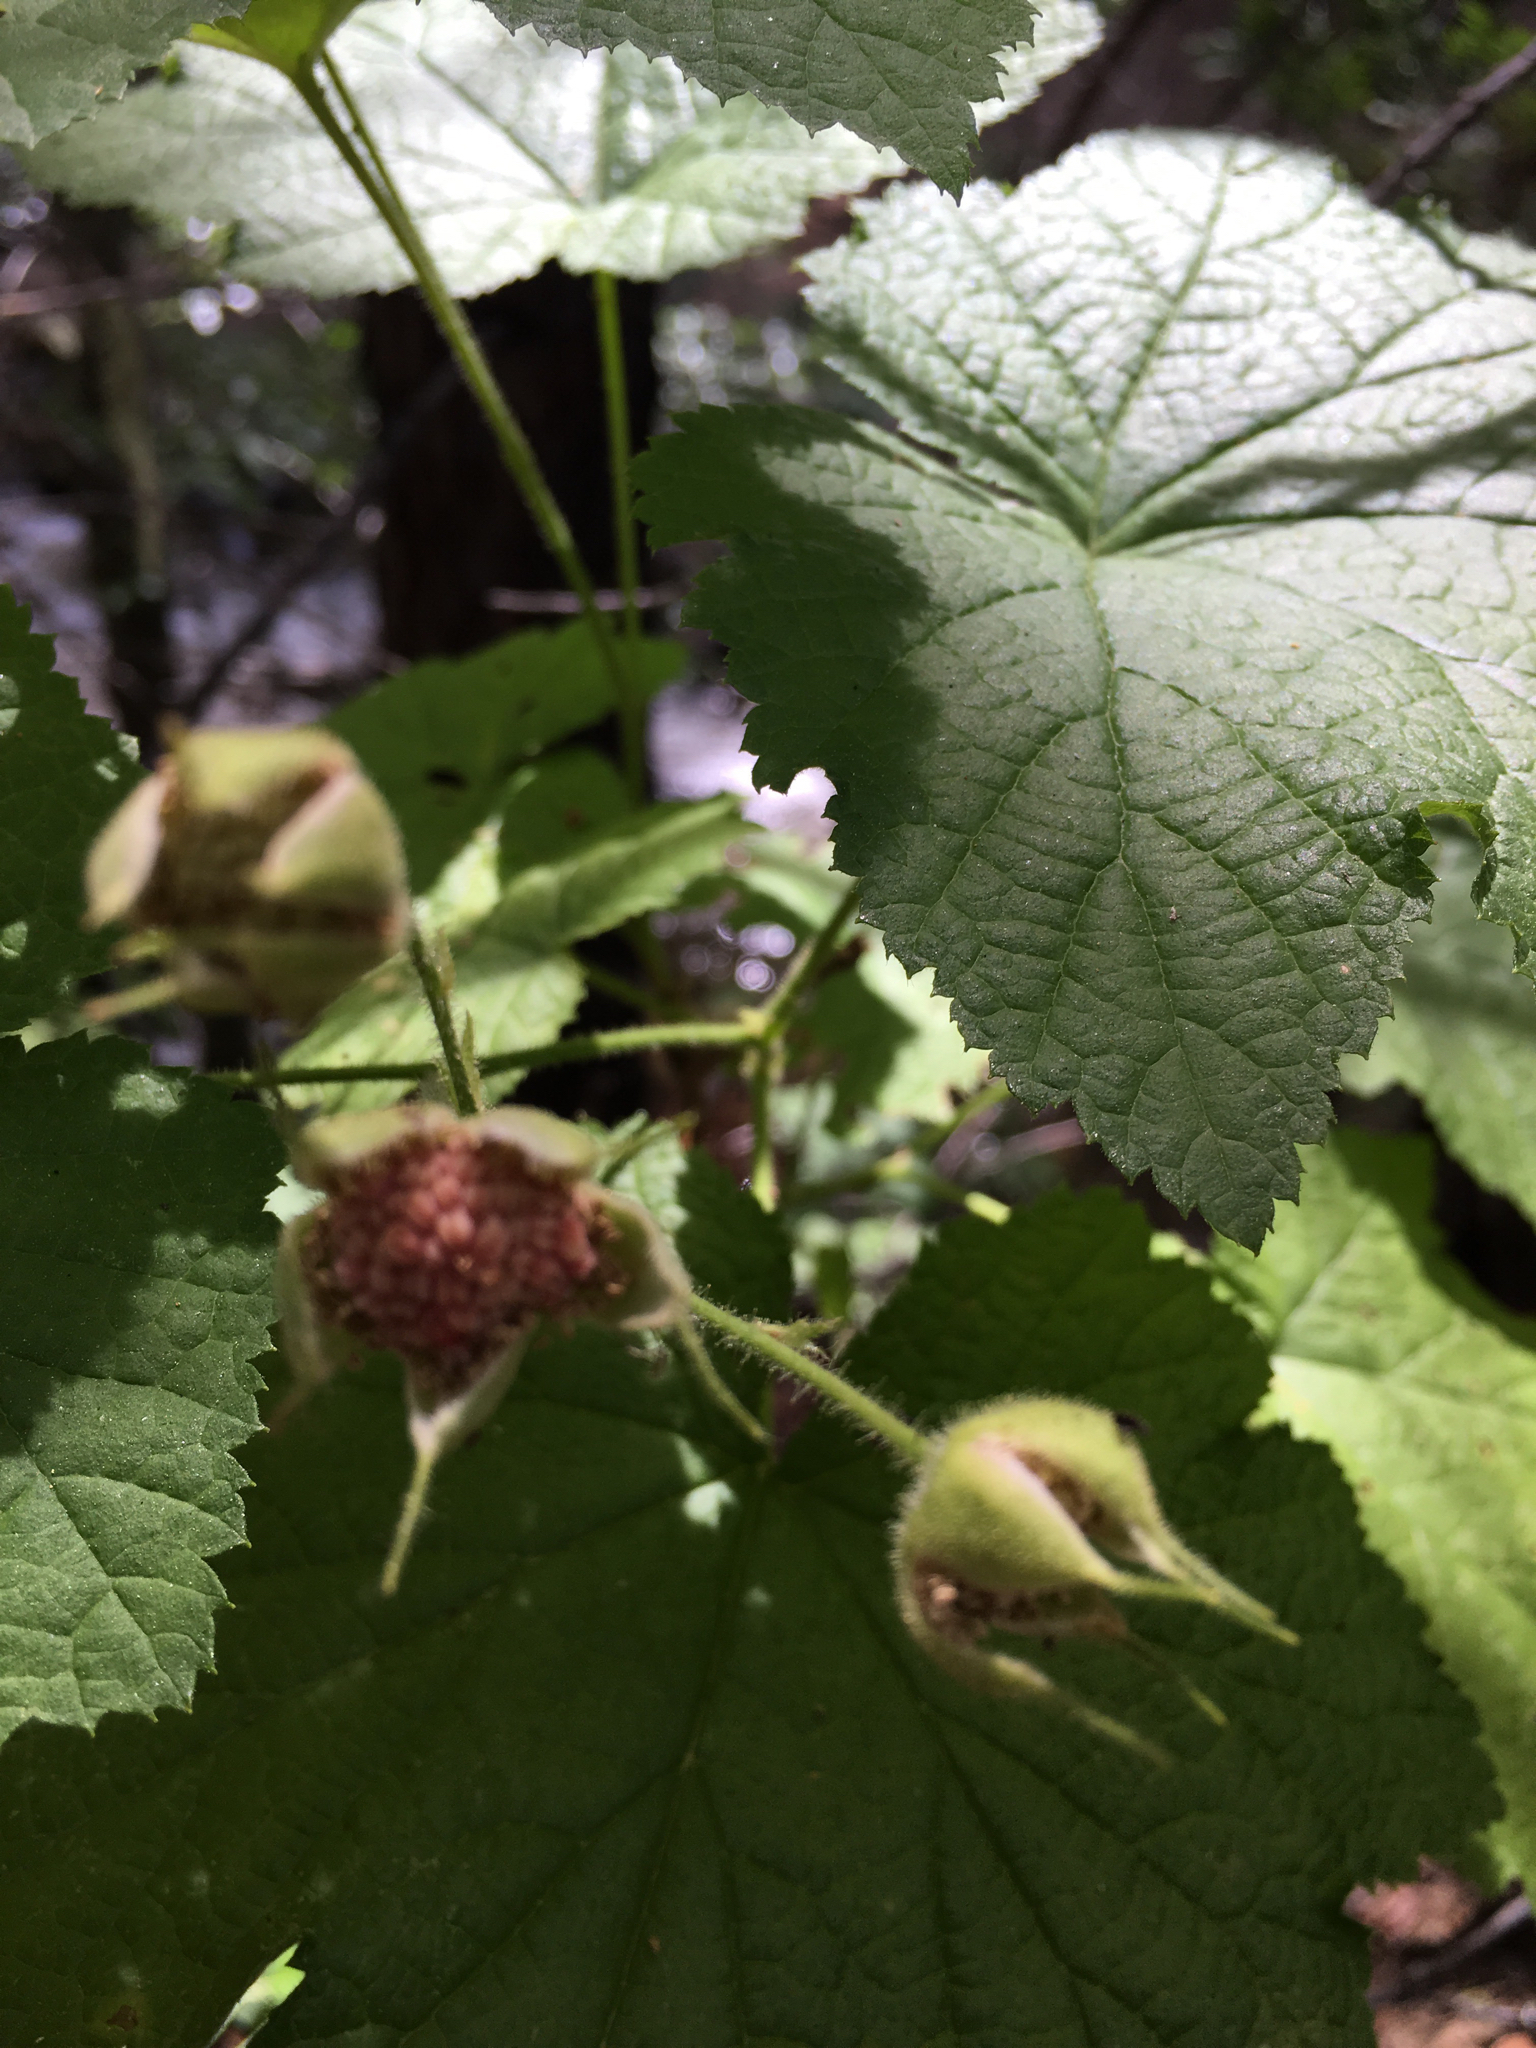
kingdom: Plantae
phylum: Tracheophyta
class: Magnoliopsida
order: Rosales
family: Rosaceae
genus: Rubus
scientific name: Rubus parviflorus
